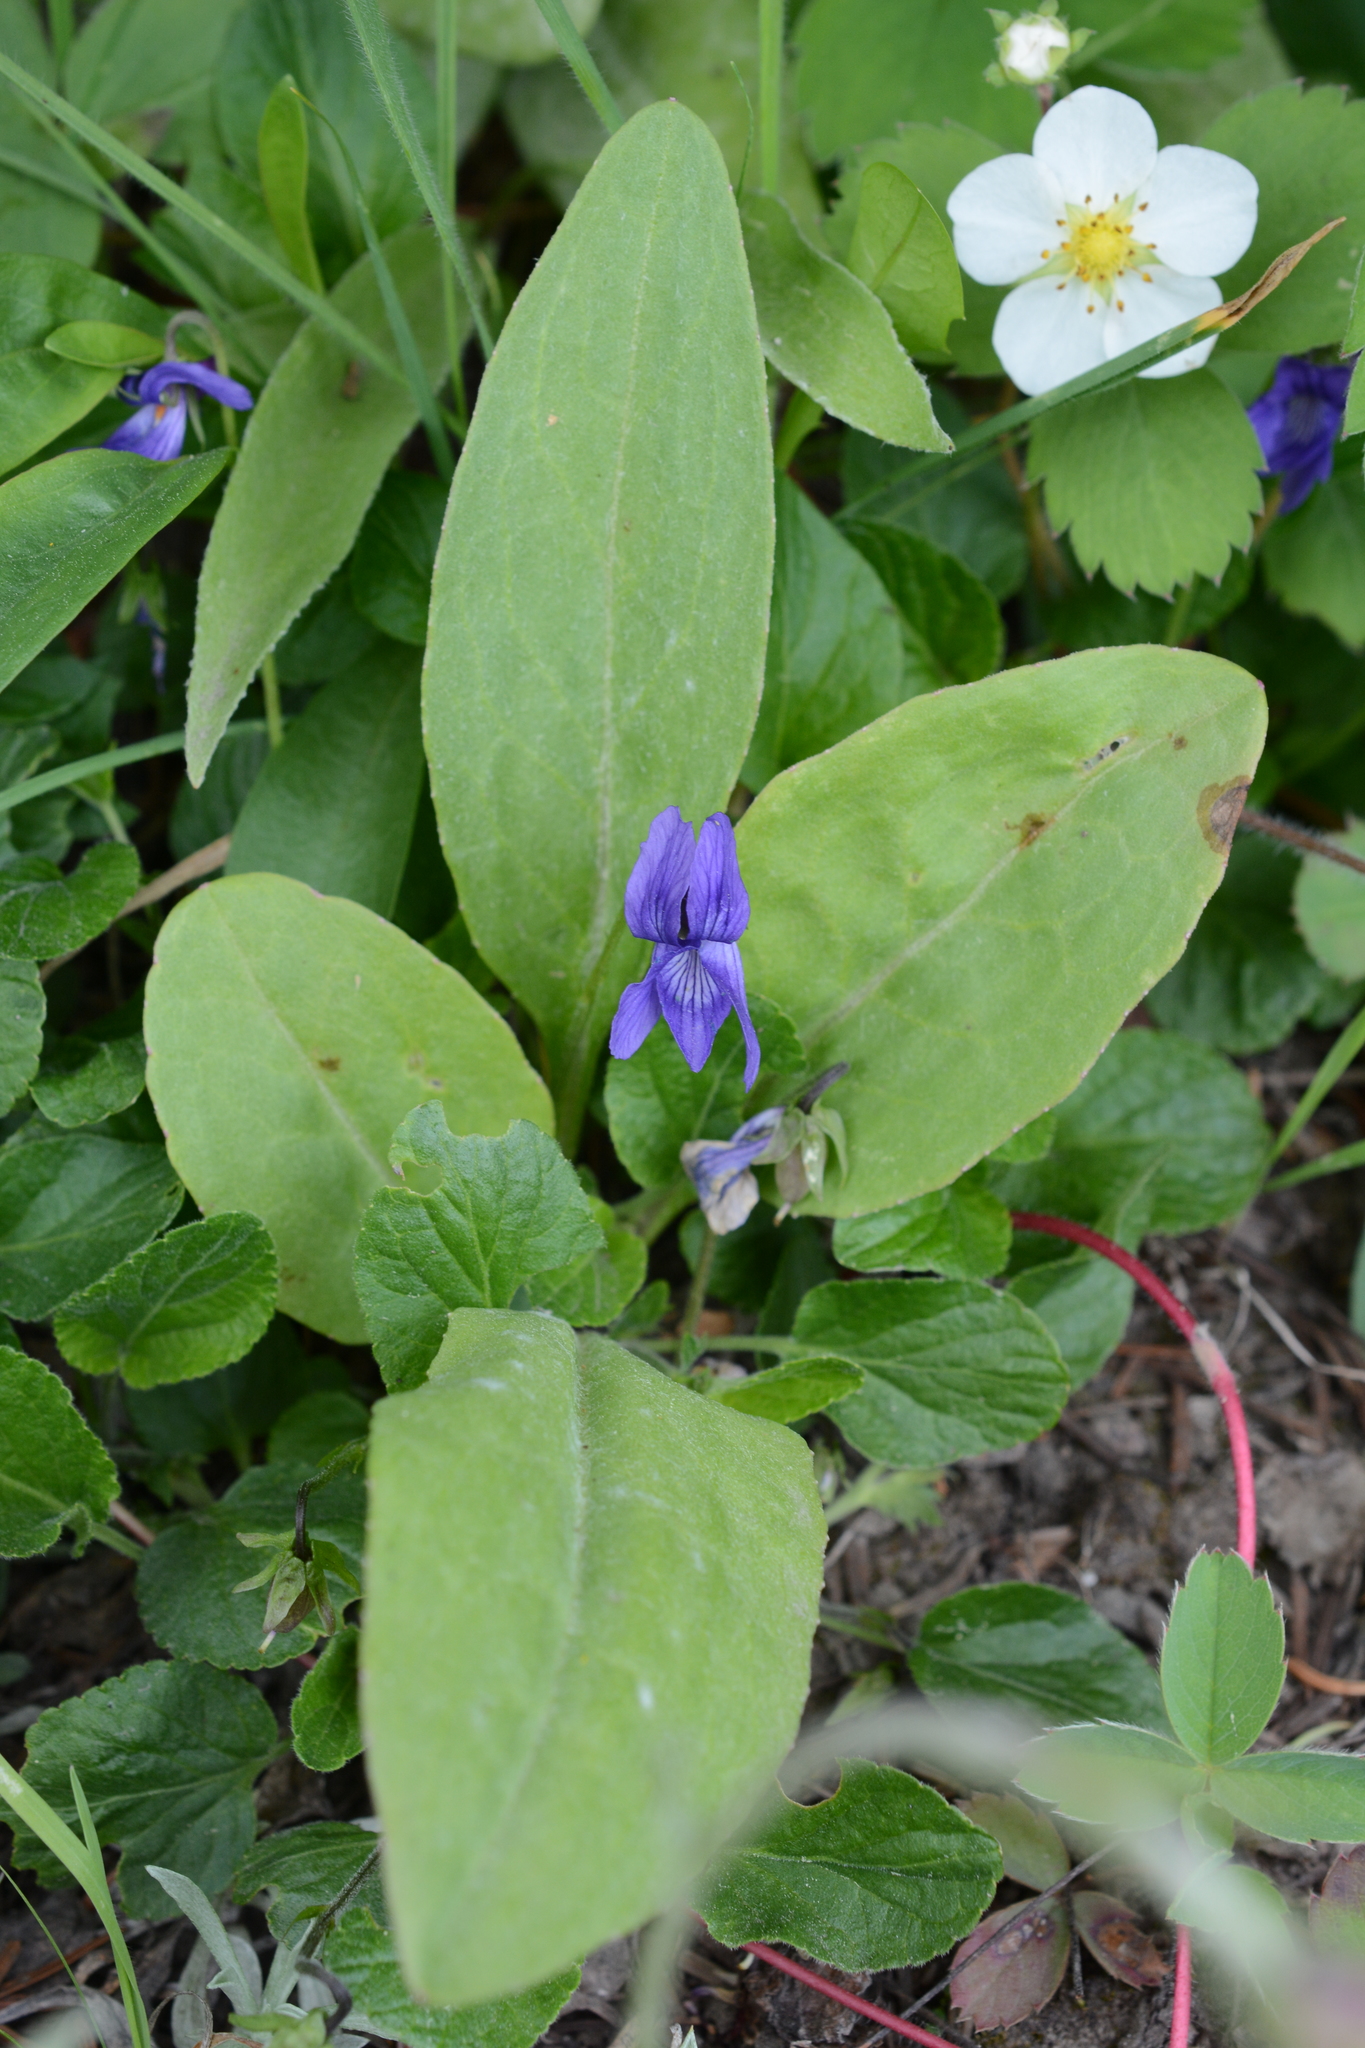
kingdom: Plantae
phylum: Tracheophyta
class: Magnoliopsida
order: Malpighiales
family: Violaceae
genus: Viola
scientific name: Viola adunca
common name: Sand violet
